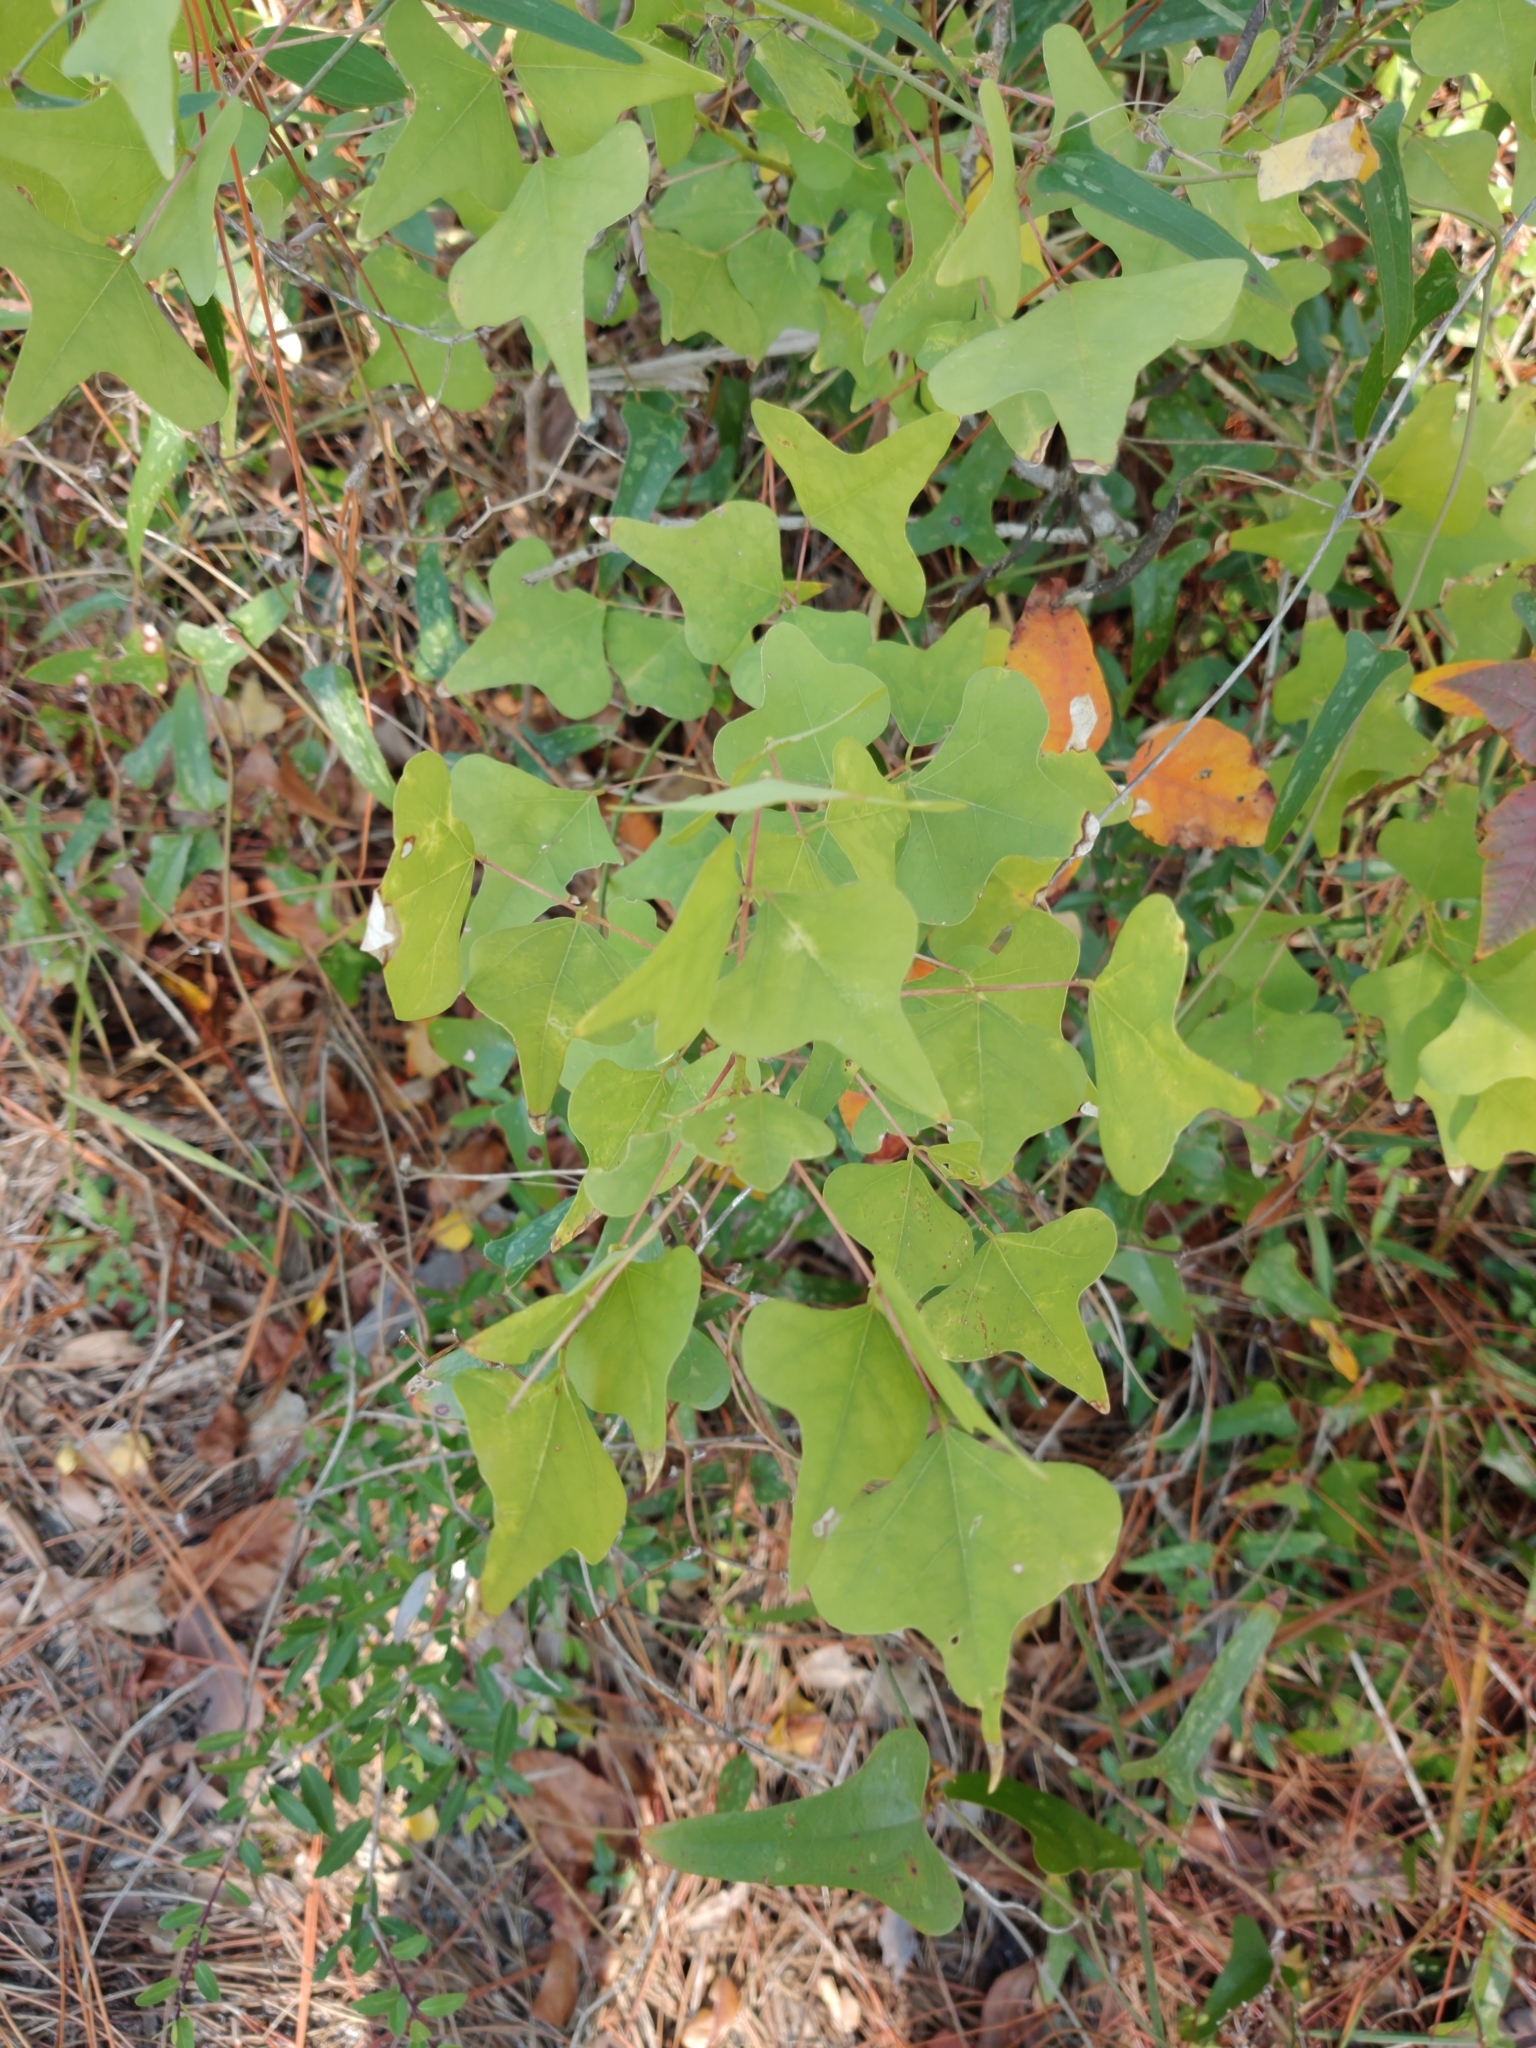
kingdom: Plantae
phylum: Tracheophyta
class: Magnoliopsida
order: Fabales
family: Fabaceae
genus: Erythrina
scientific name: Erythrina herbacea
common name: Coral-bean
